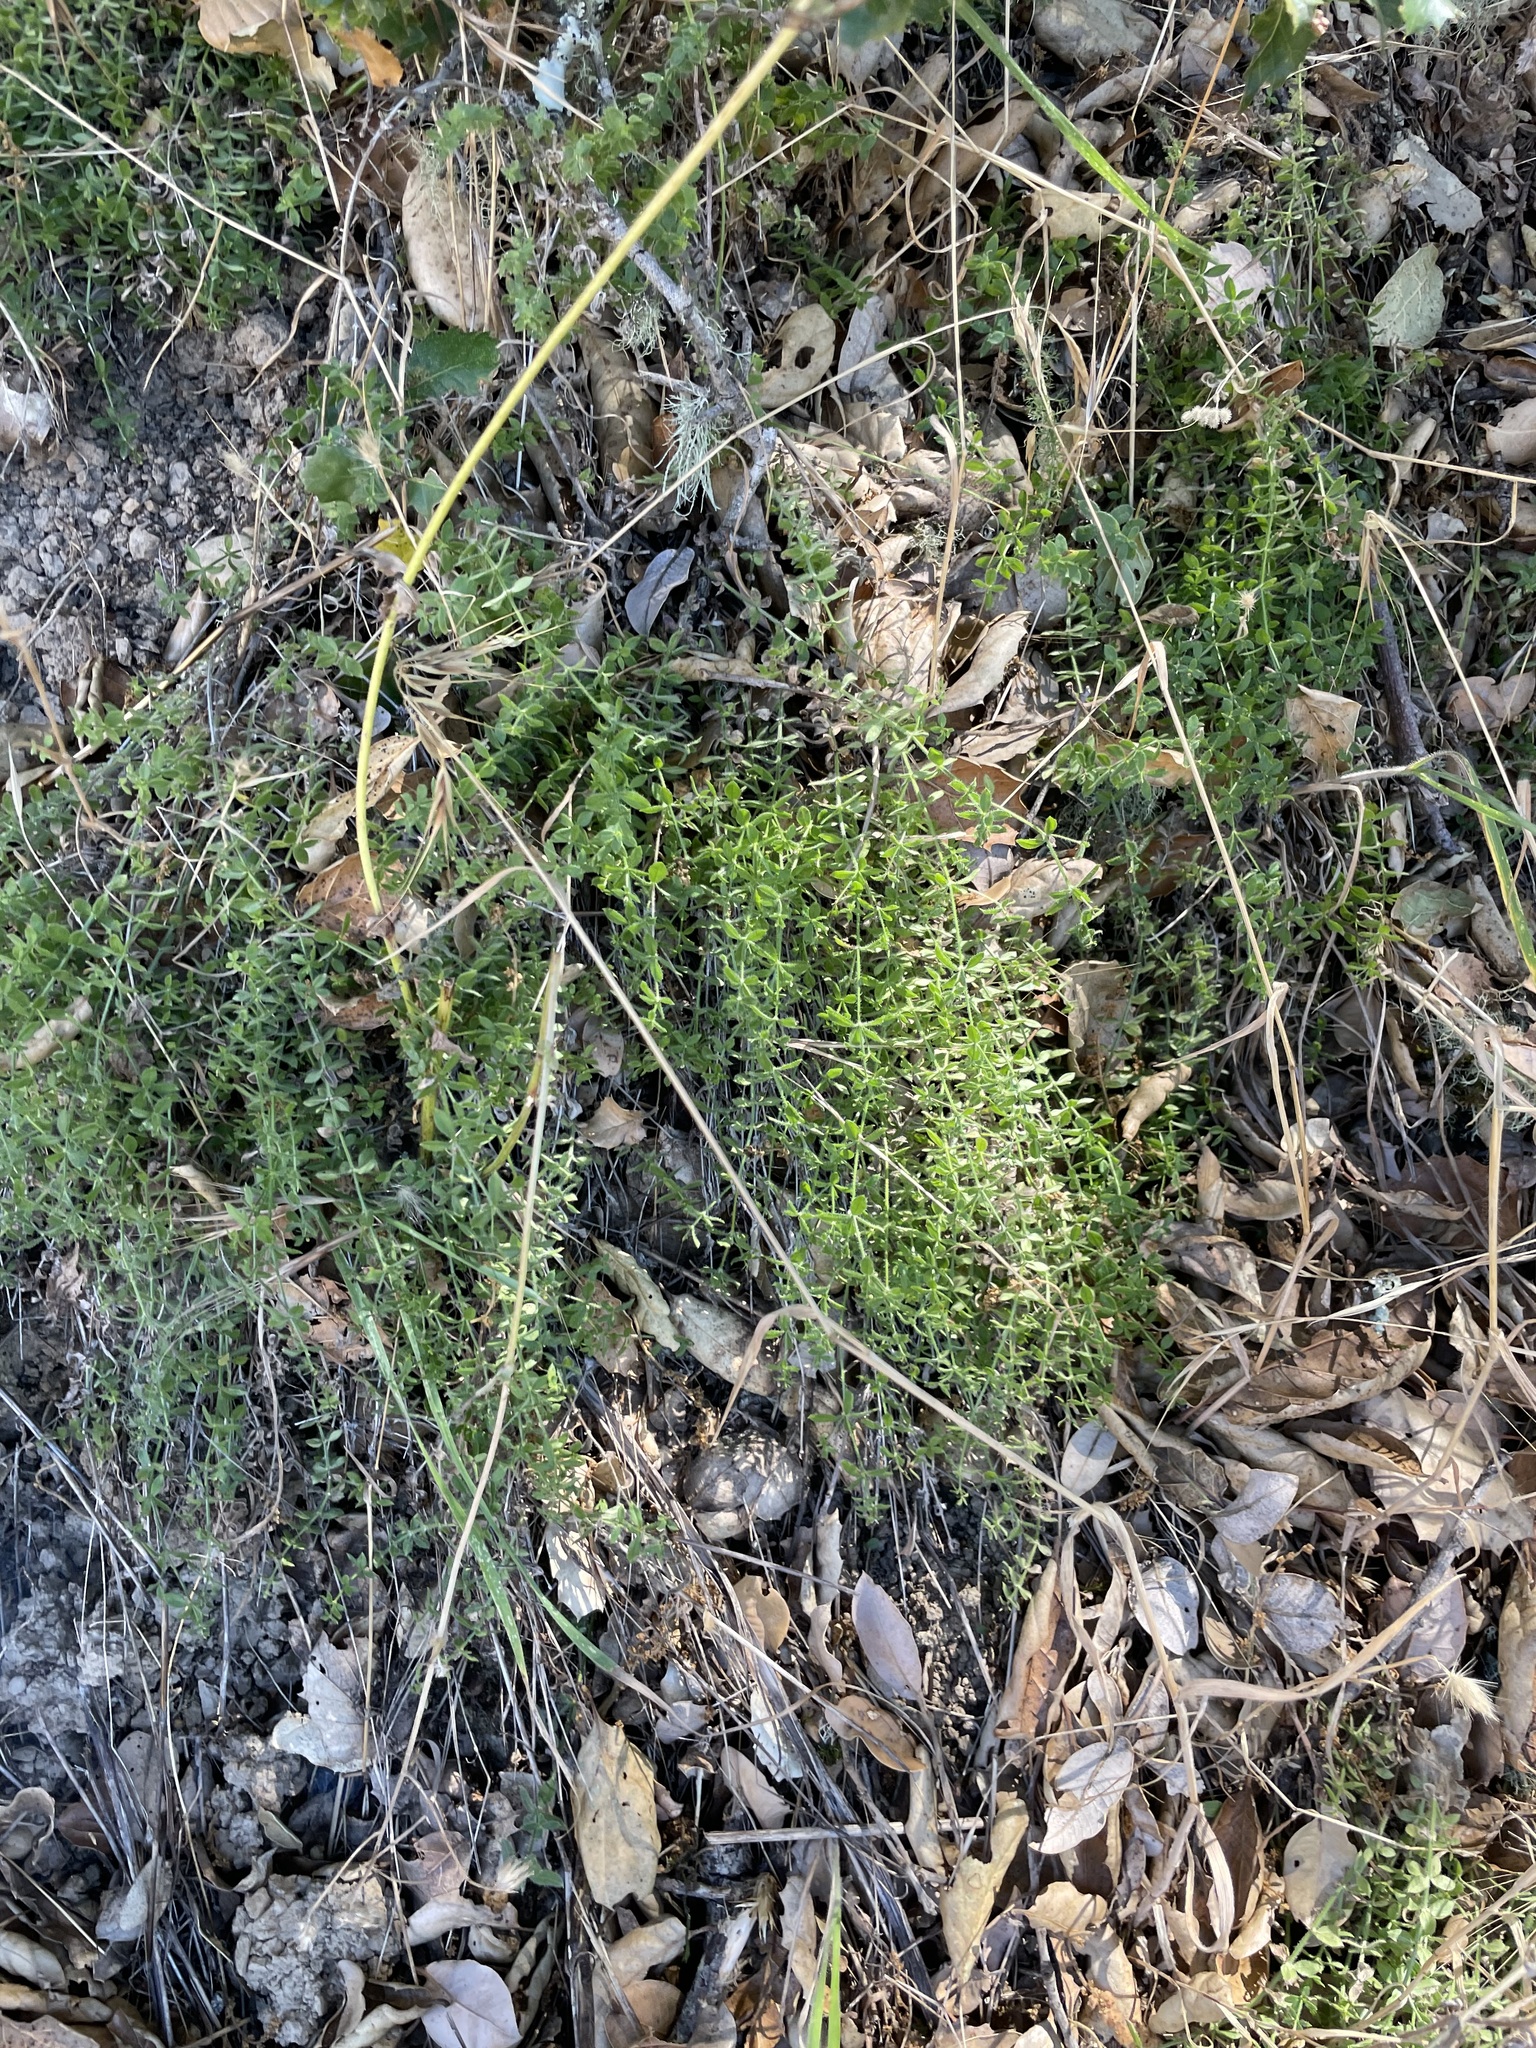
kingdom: Plantae
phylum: Tracheophyta
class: Magnoliopsida
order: Gentianales
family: Rubiaceae
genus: Galium
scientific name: Galium californicum
